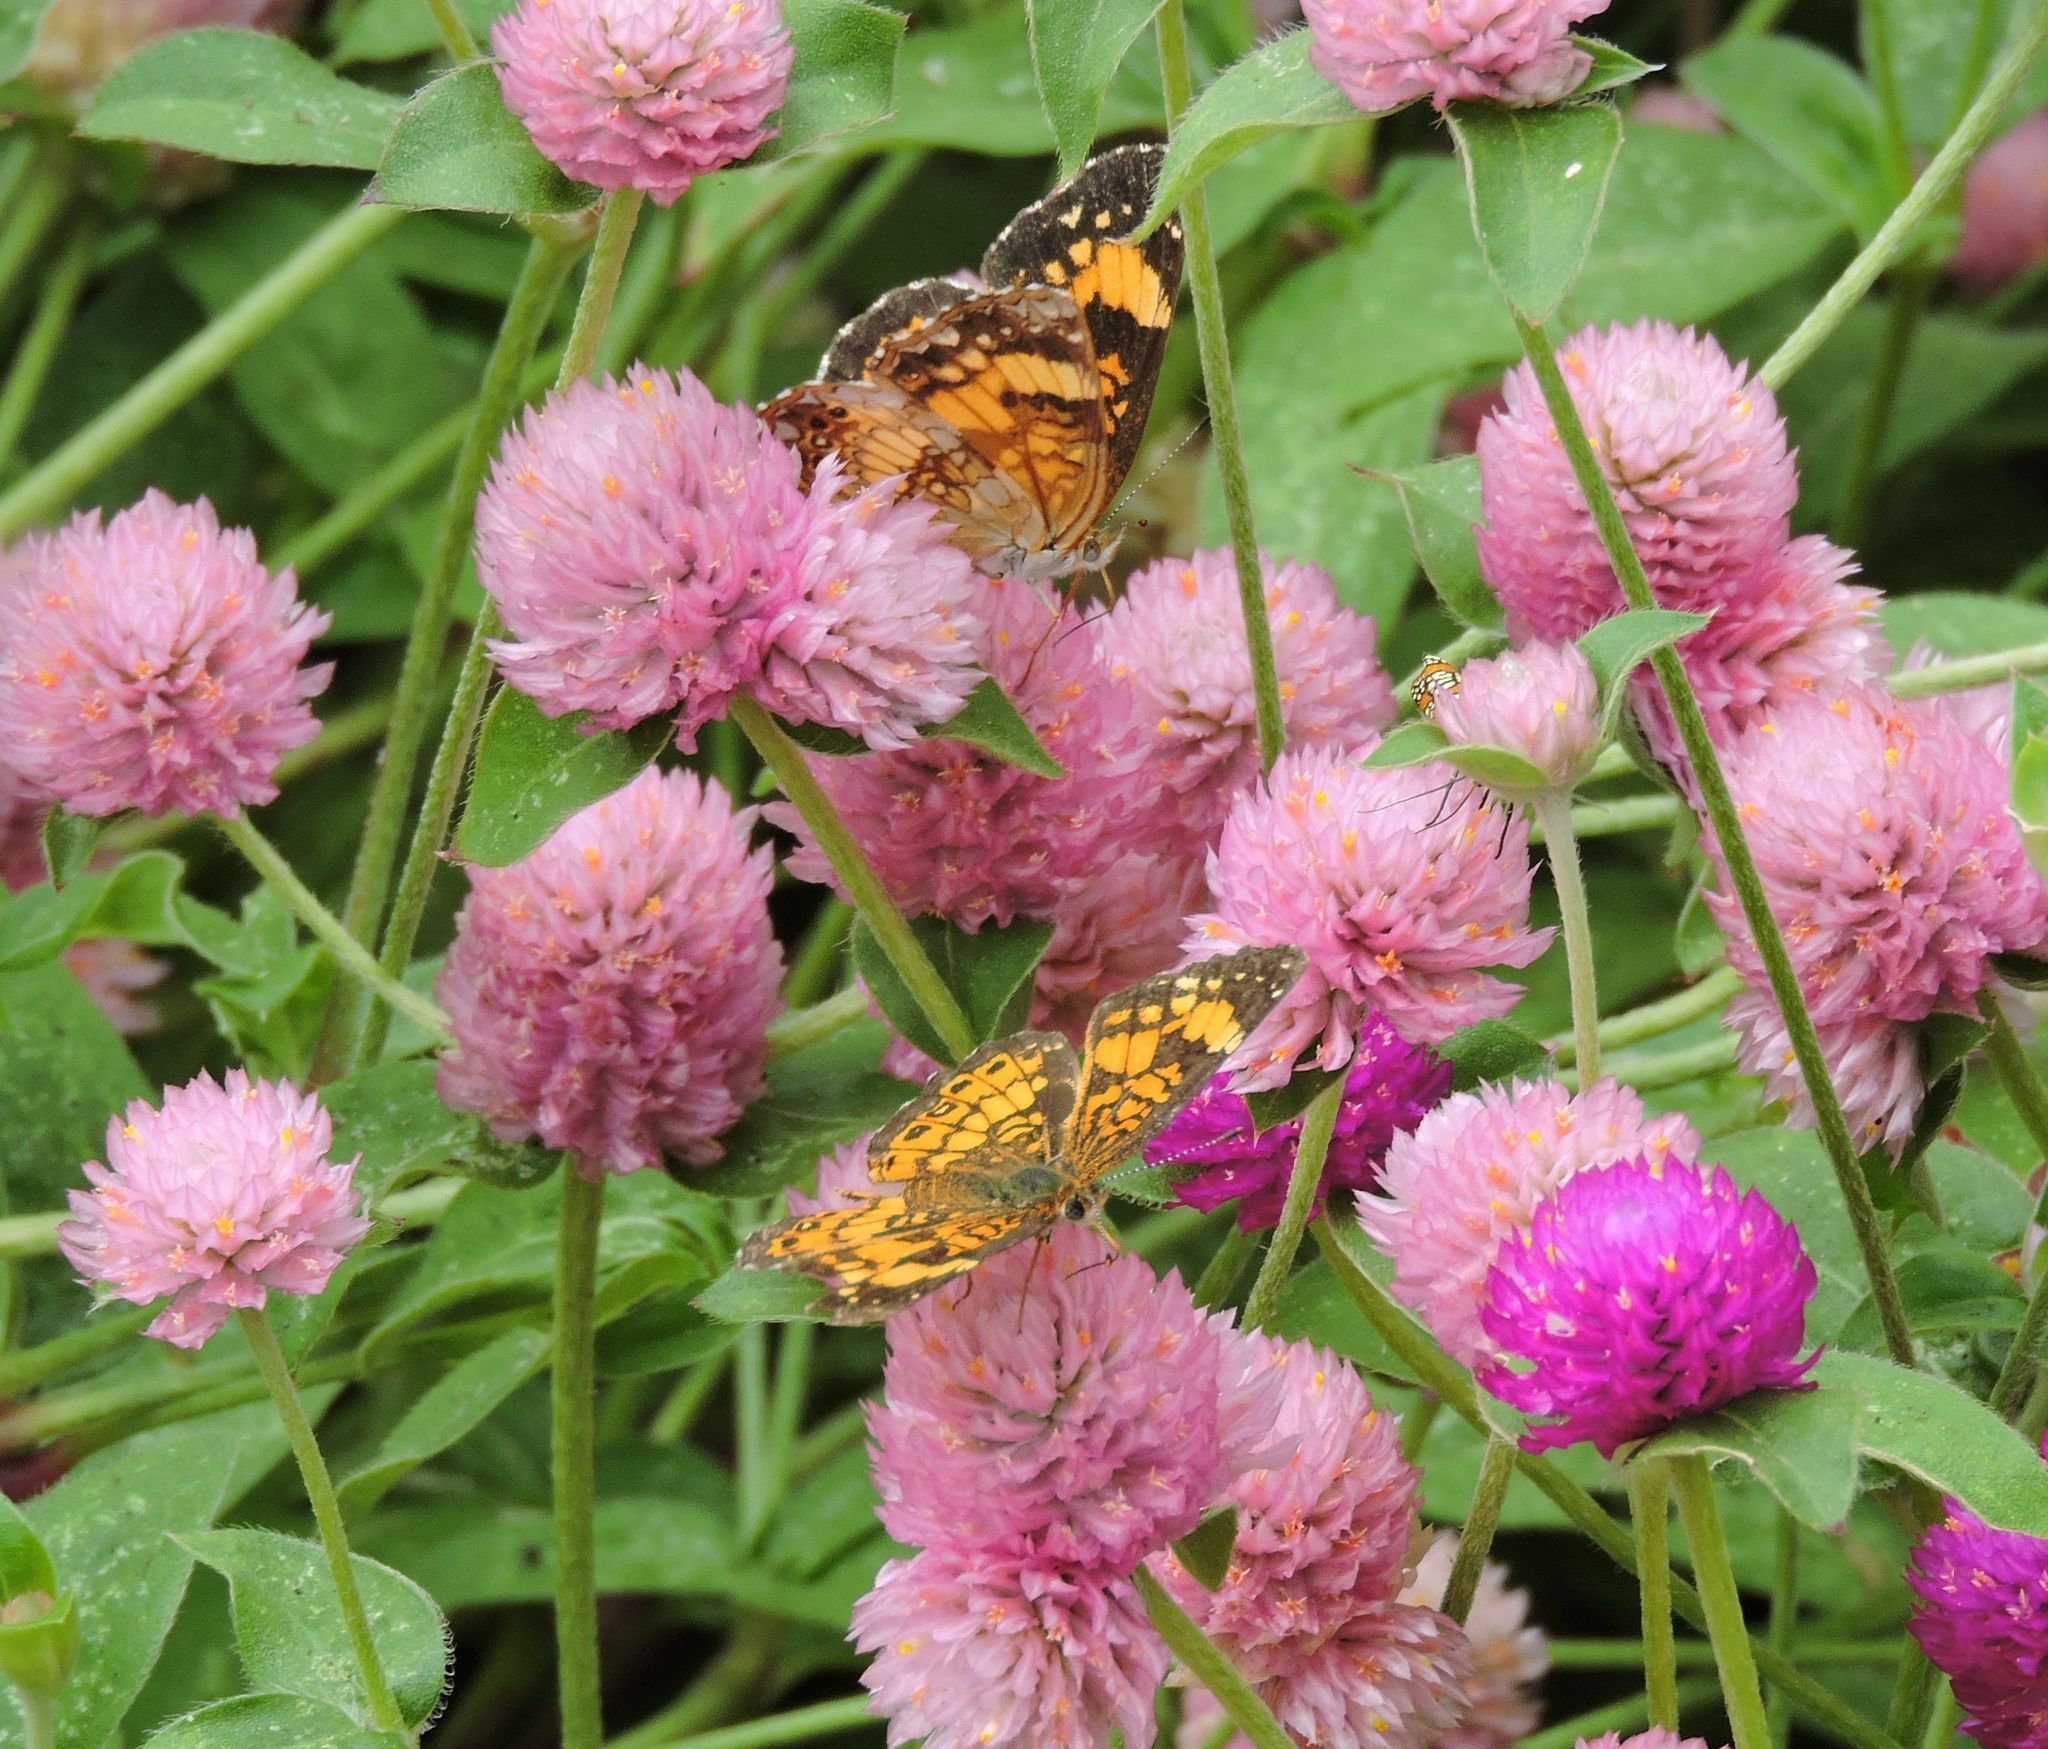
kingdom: Animalia
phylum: Arthropoda
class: Insecta
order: Lepidoptera
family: Nymphalidae
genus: Chlosyne
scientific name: Chlosyne nycteis
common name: Silvery checkerspot
